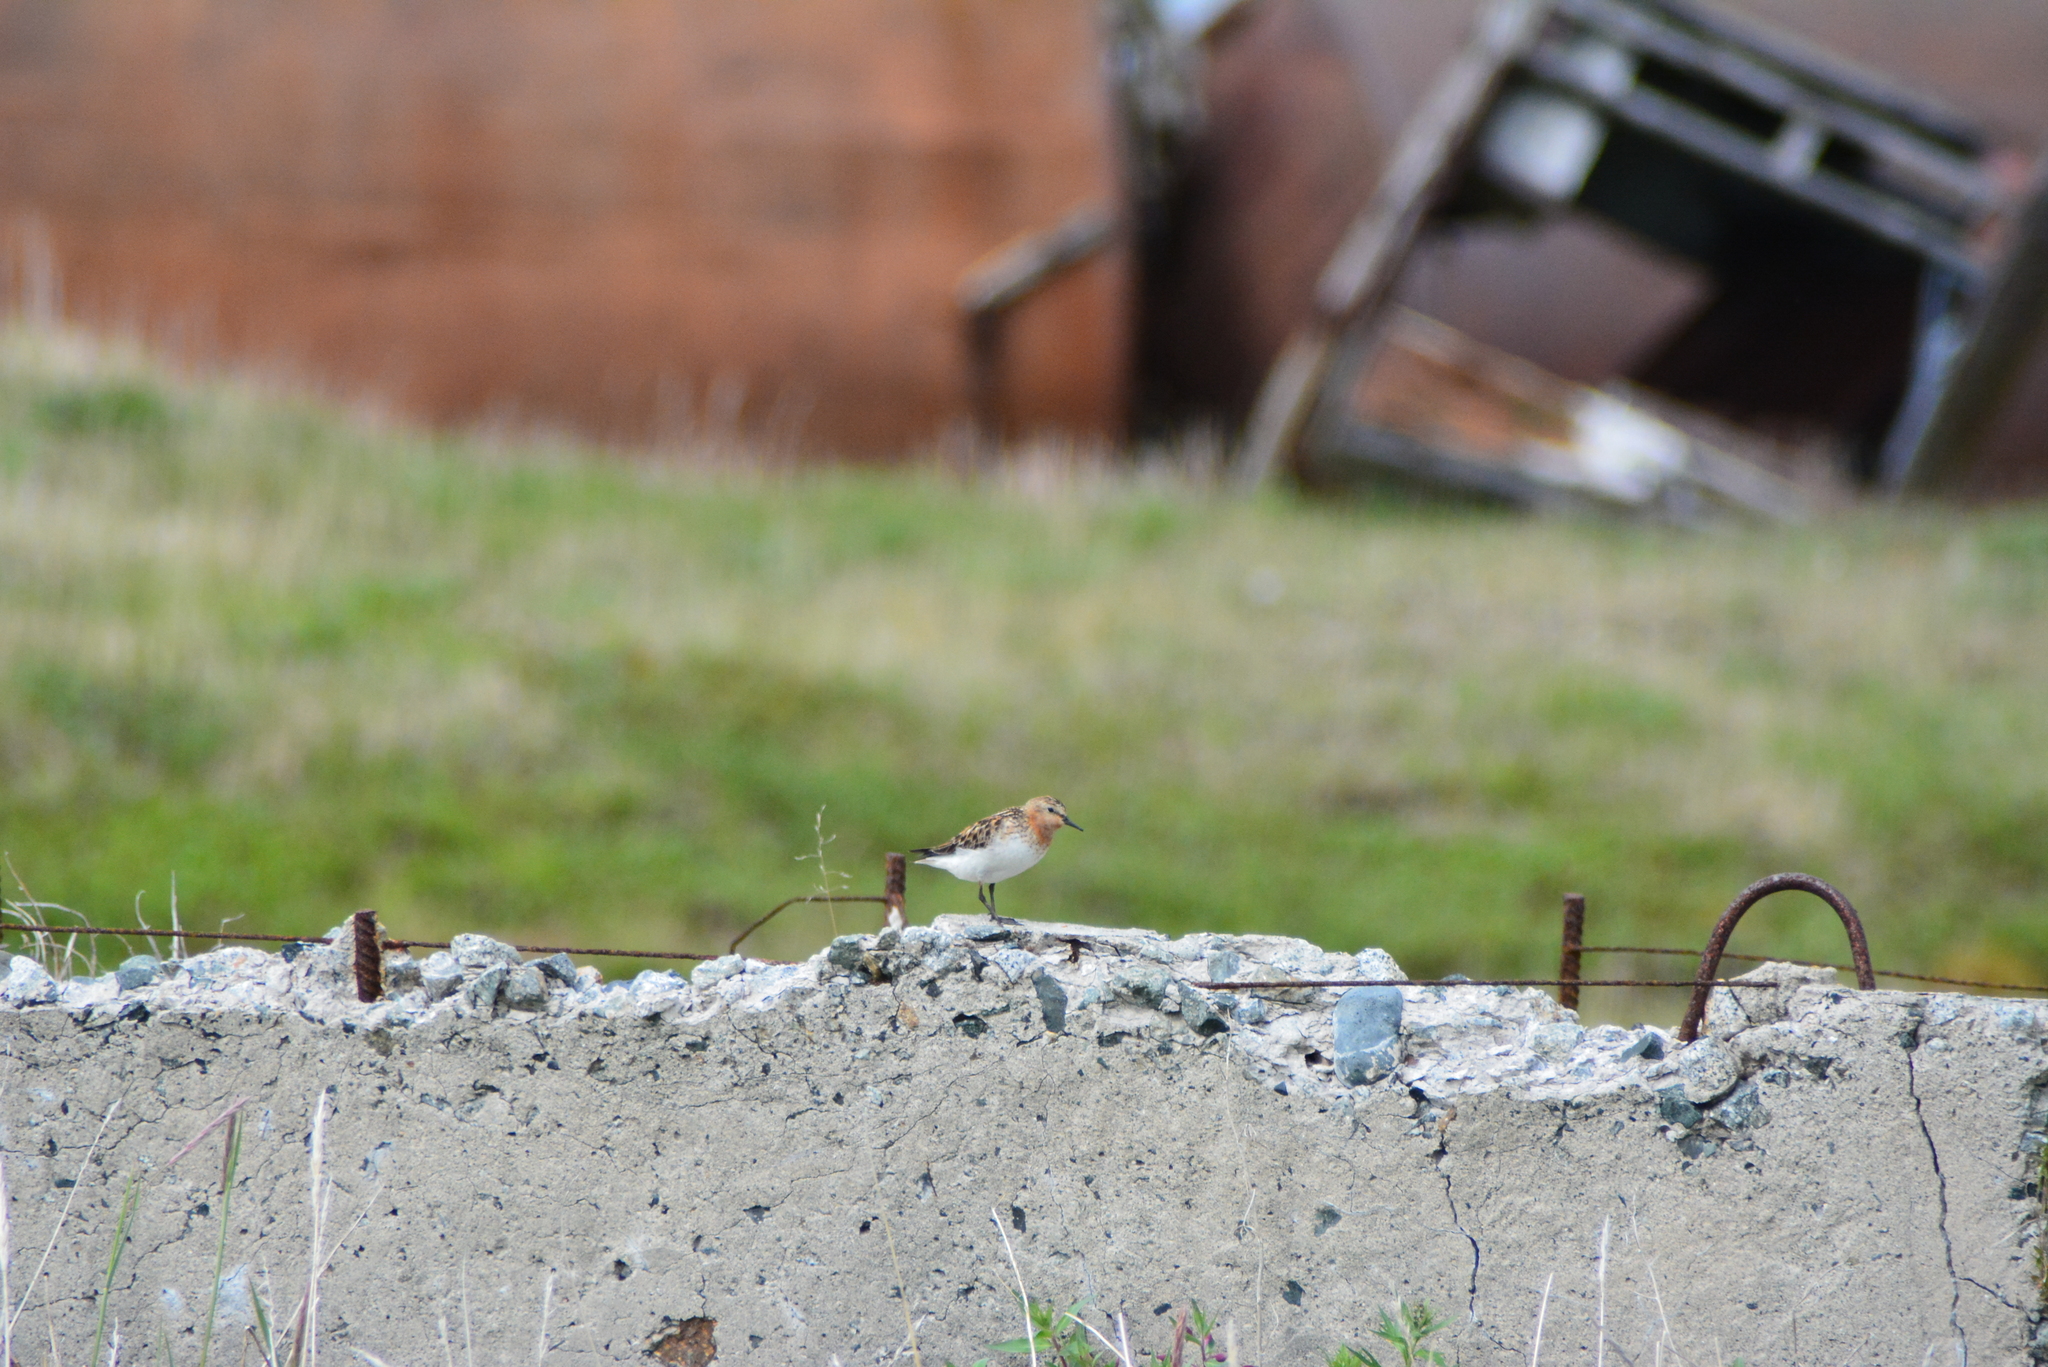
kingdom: Animalia
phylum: Chordata
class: Aves
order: Charadriiformes
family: Scolopacidae
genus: Calidris
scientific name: Calidris ruficollis
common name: Red-necked stint
